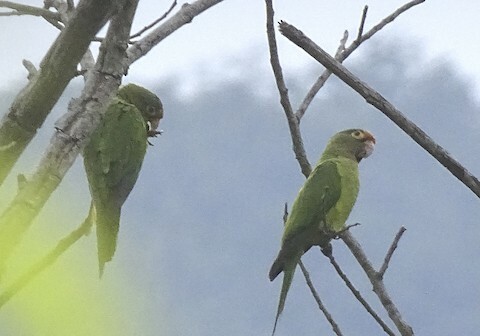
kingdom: Animalia
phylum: Chordata
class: Aves
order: Psittaciformes
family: Psittacidae
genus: Aratinga
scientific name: Aratinga canicularis
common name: Orange-fronted parakeet
